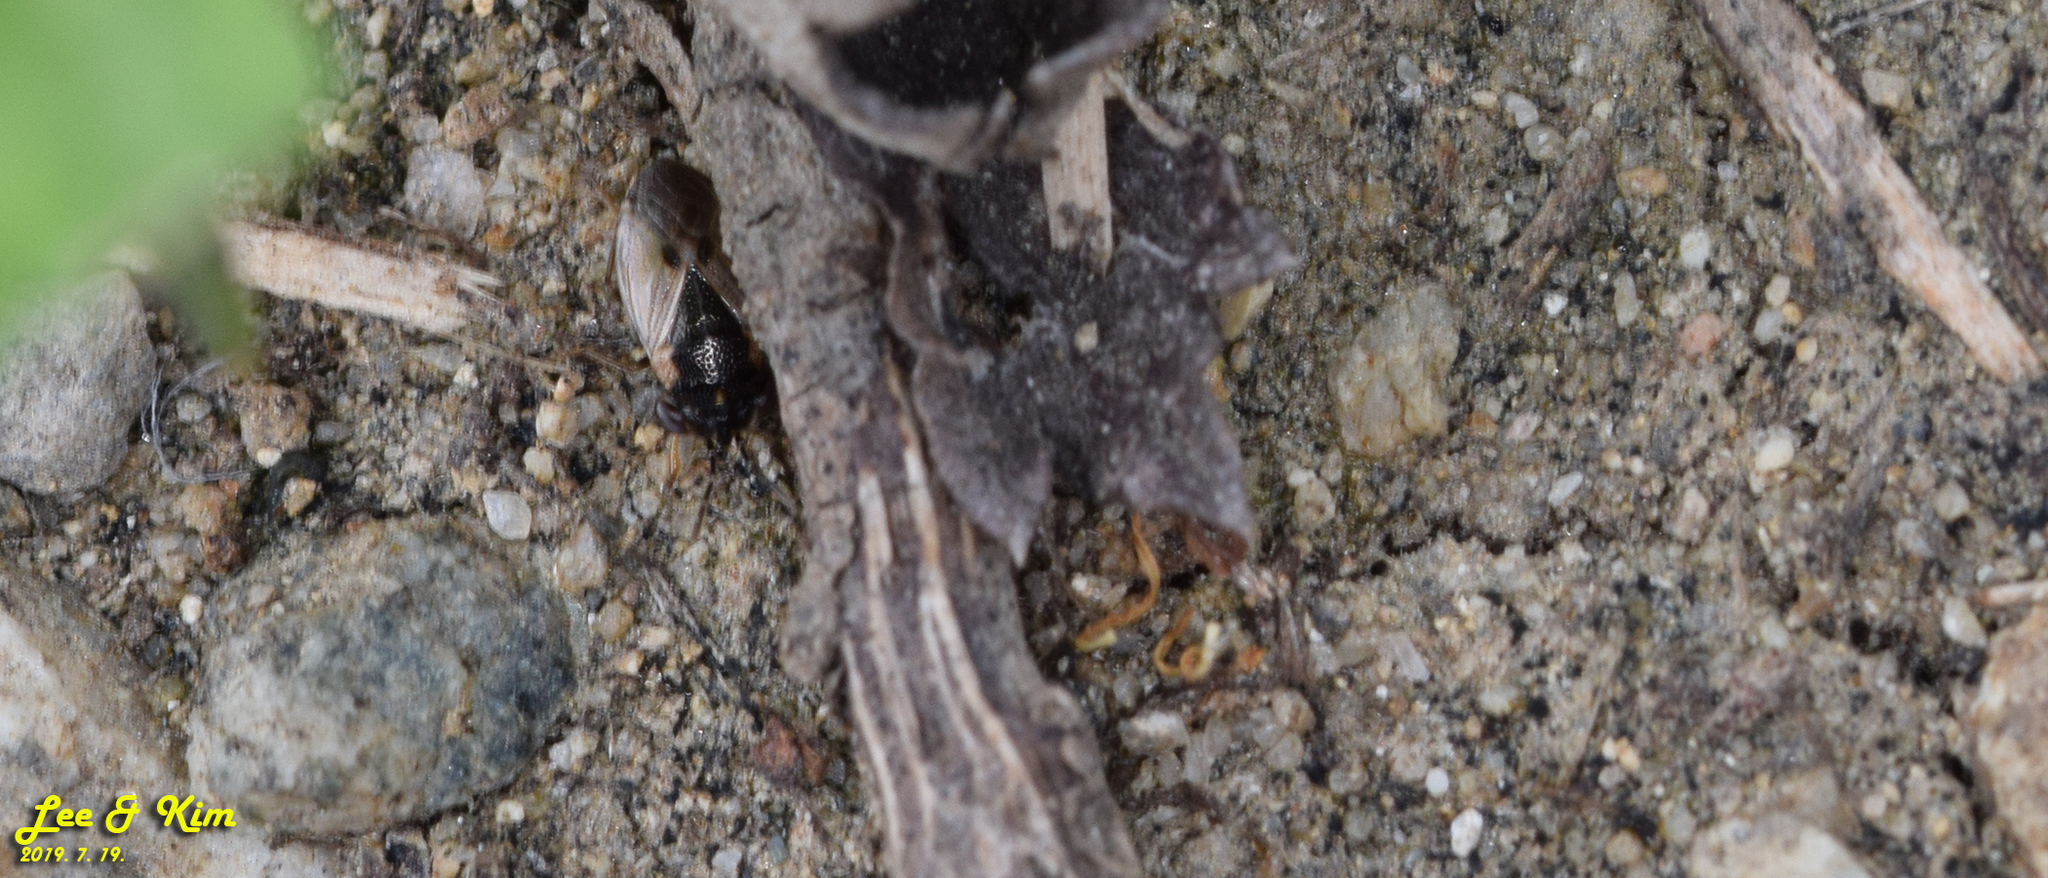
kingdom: Animalia
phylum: Arthropoda
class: Insecta
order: Hemiptera
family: Geocoridae
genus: Geocoris
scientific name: Geocoris pallidipennis
